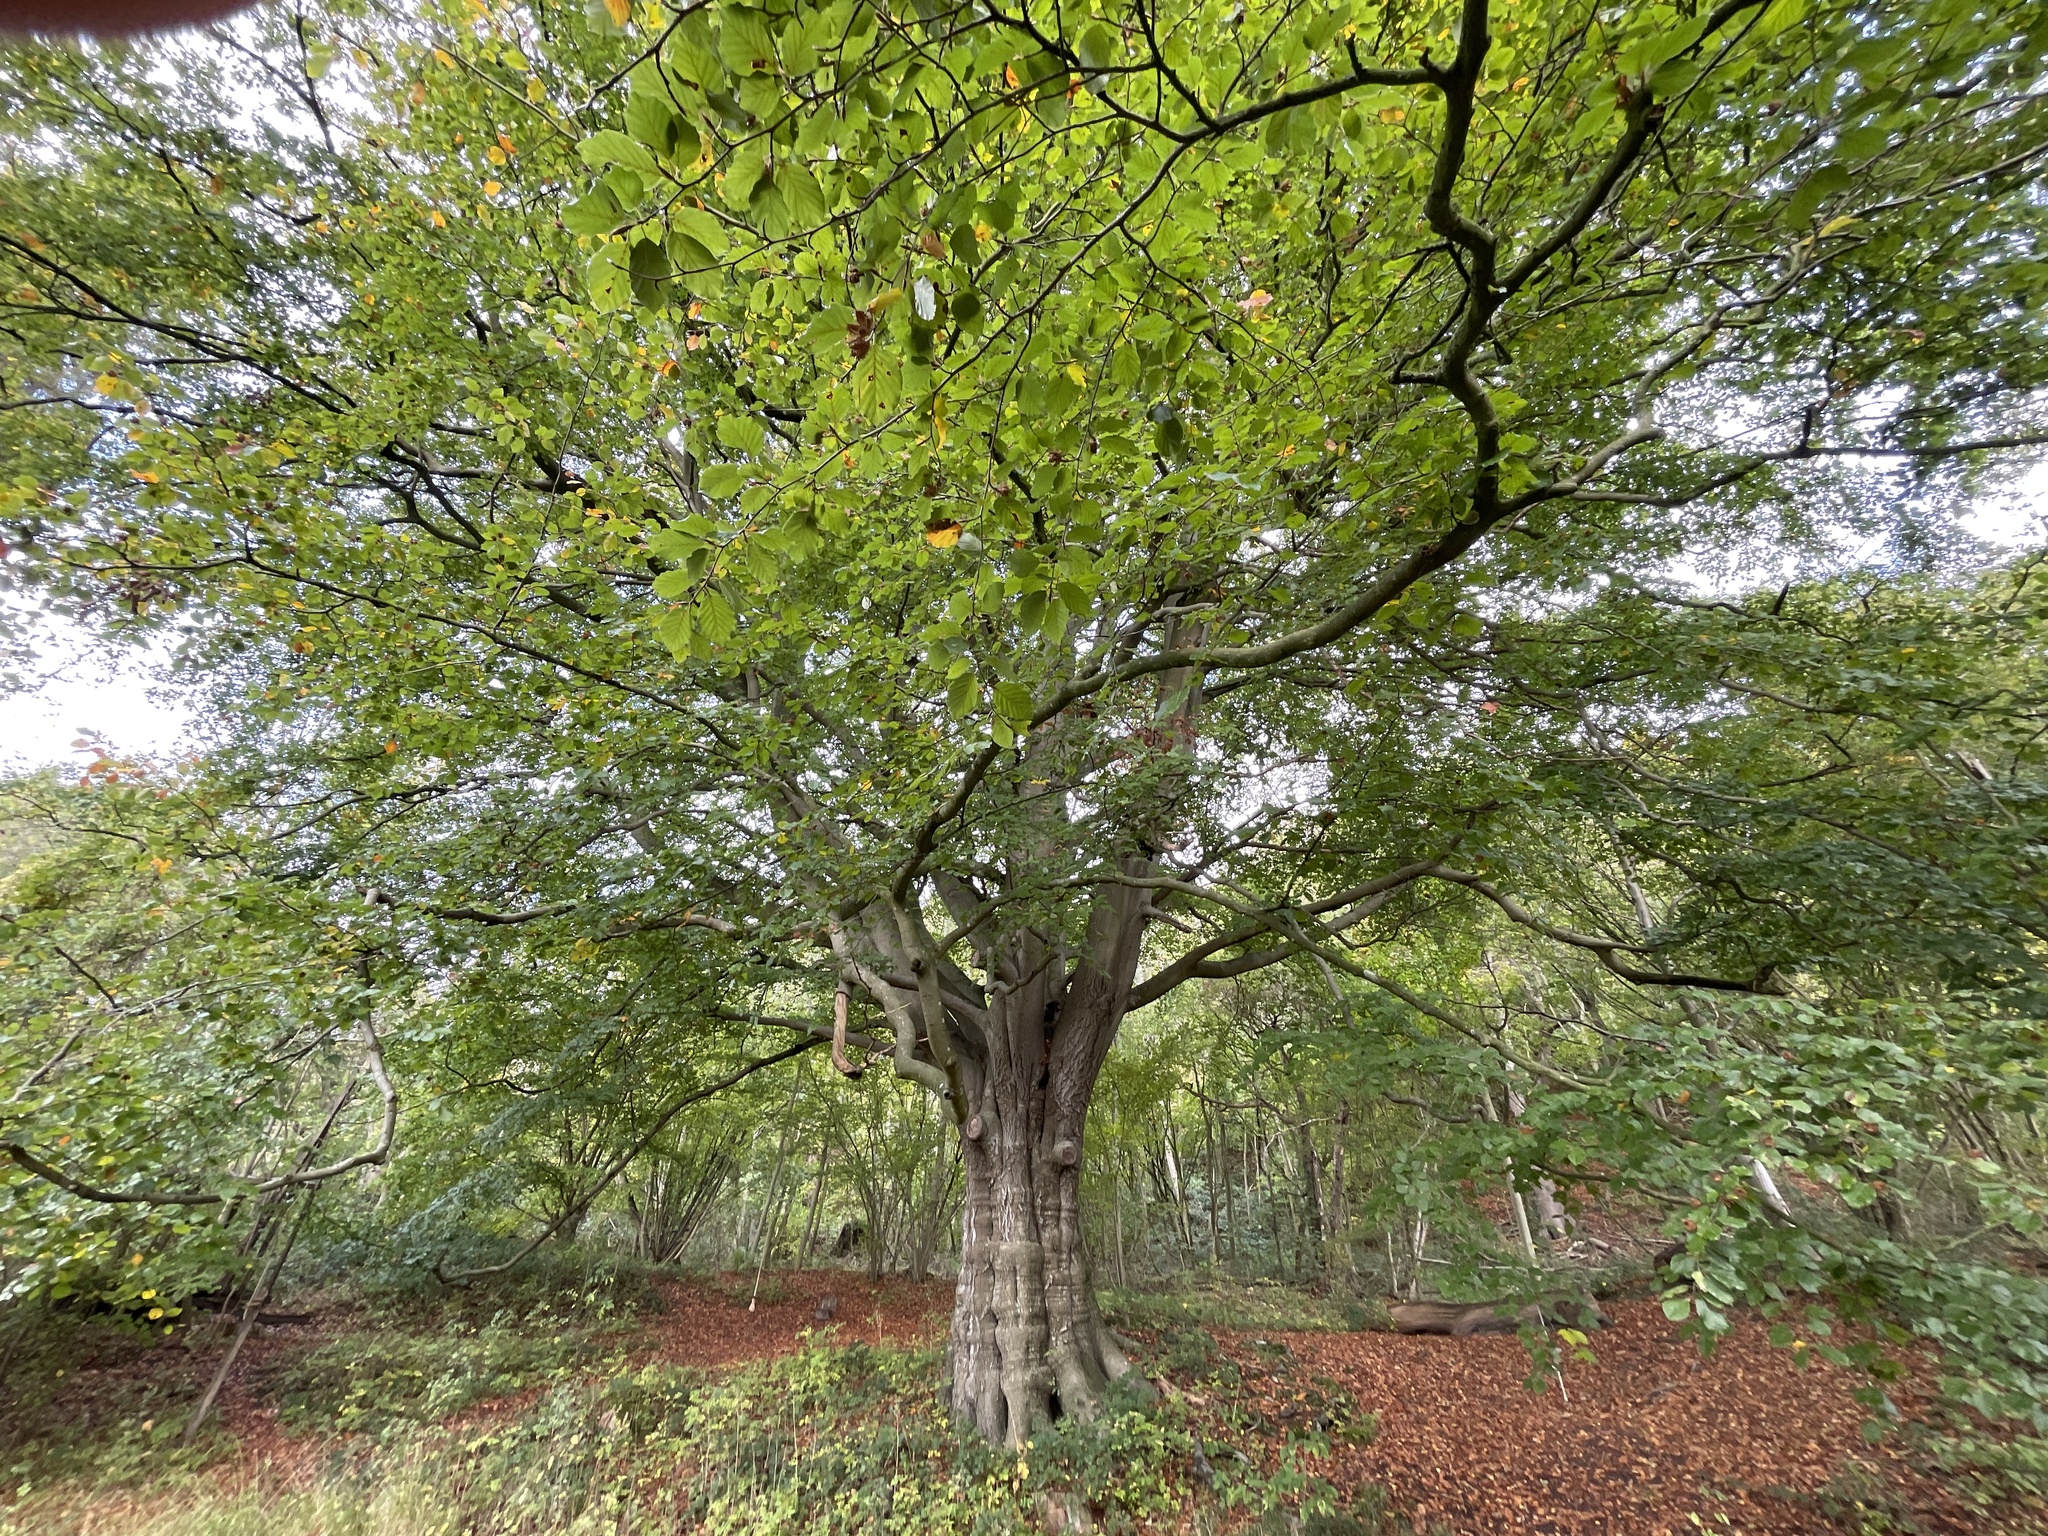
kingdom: Plantae
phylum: Tracheophyta
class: Magnoliopsida
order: Fagales
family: Fagaceae
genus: Fagus
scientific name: Fagus sylvatica
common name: Beech
